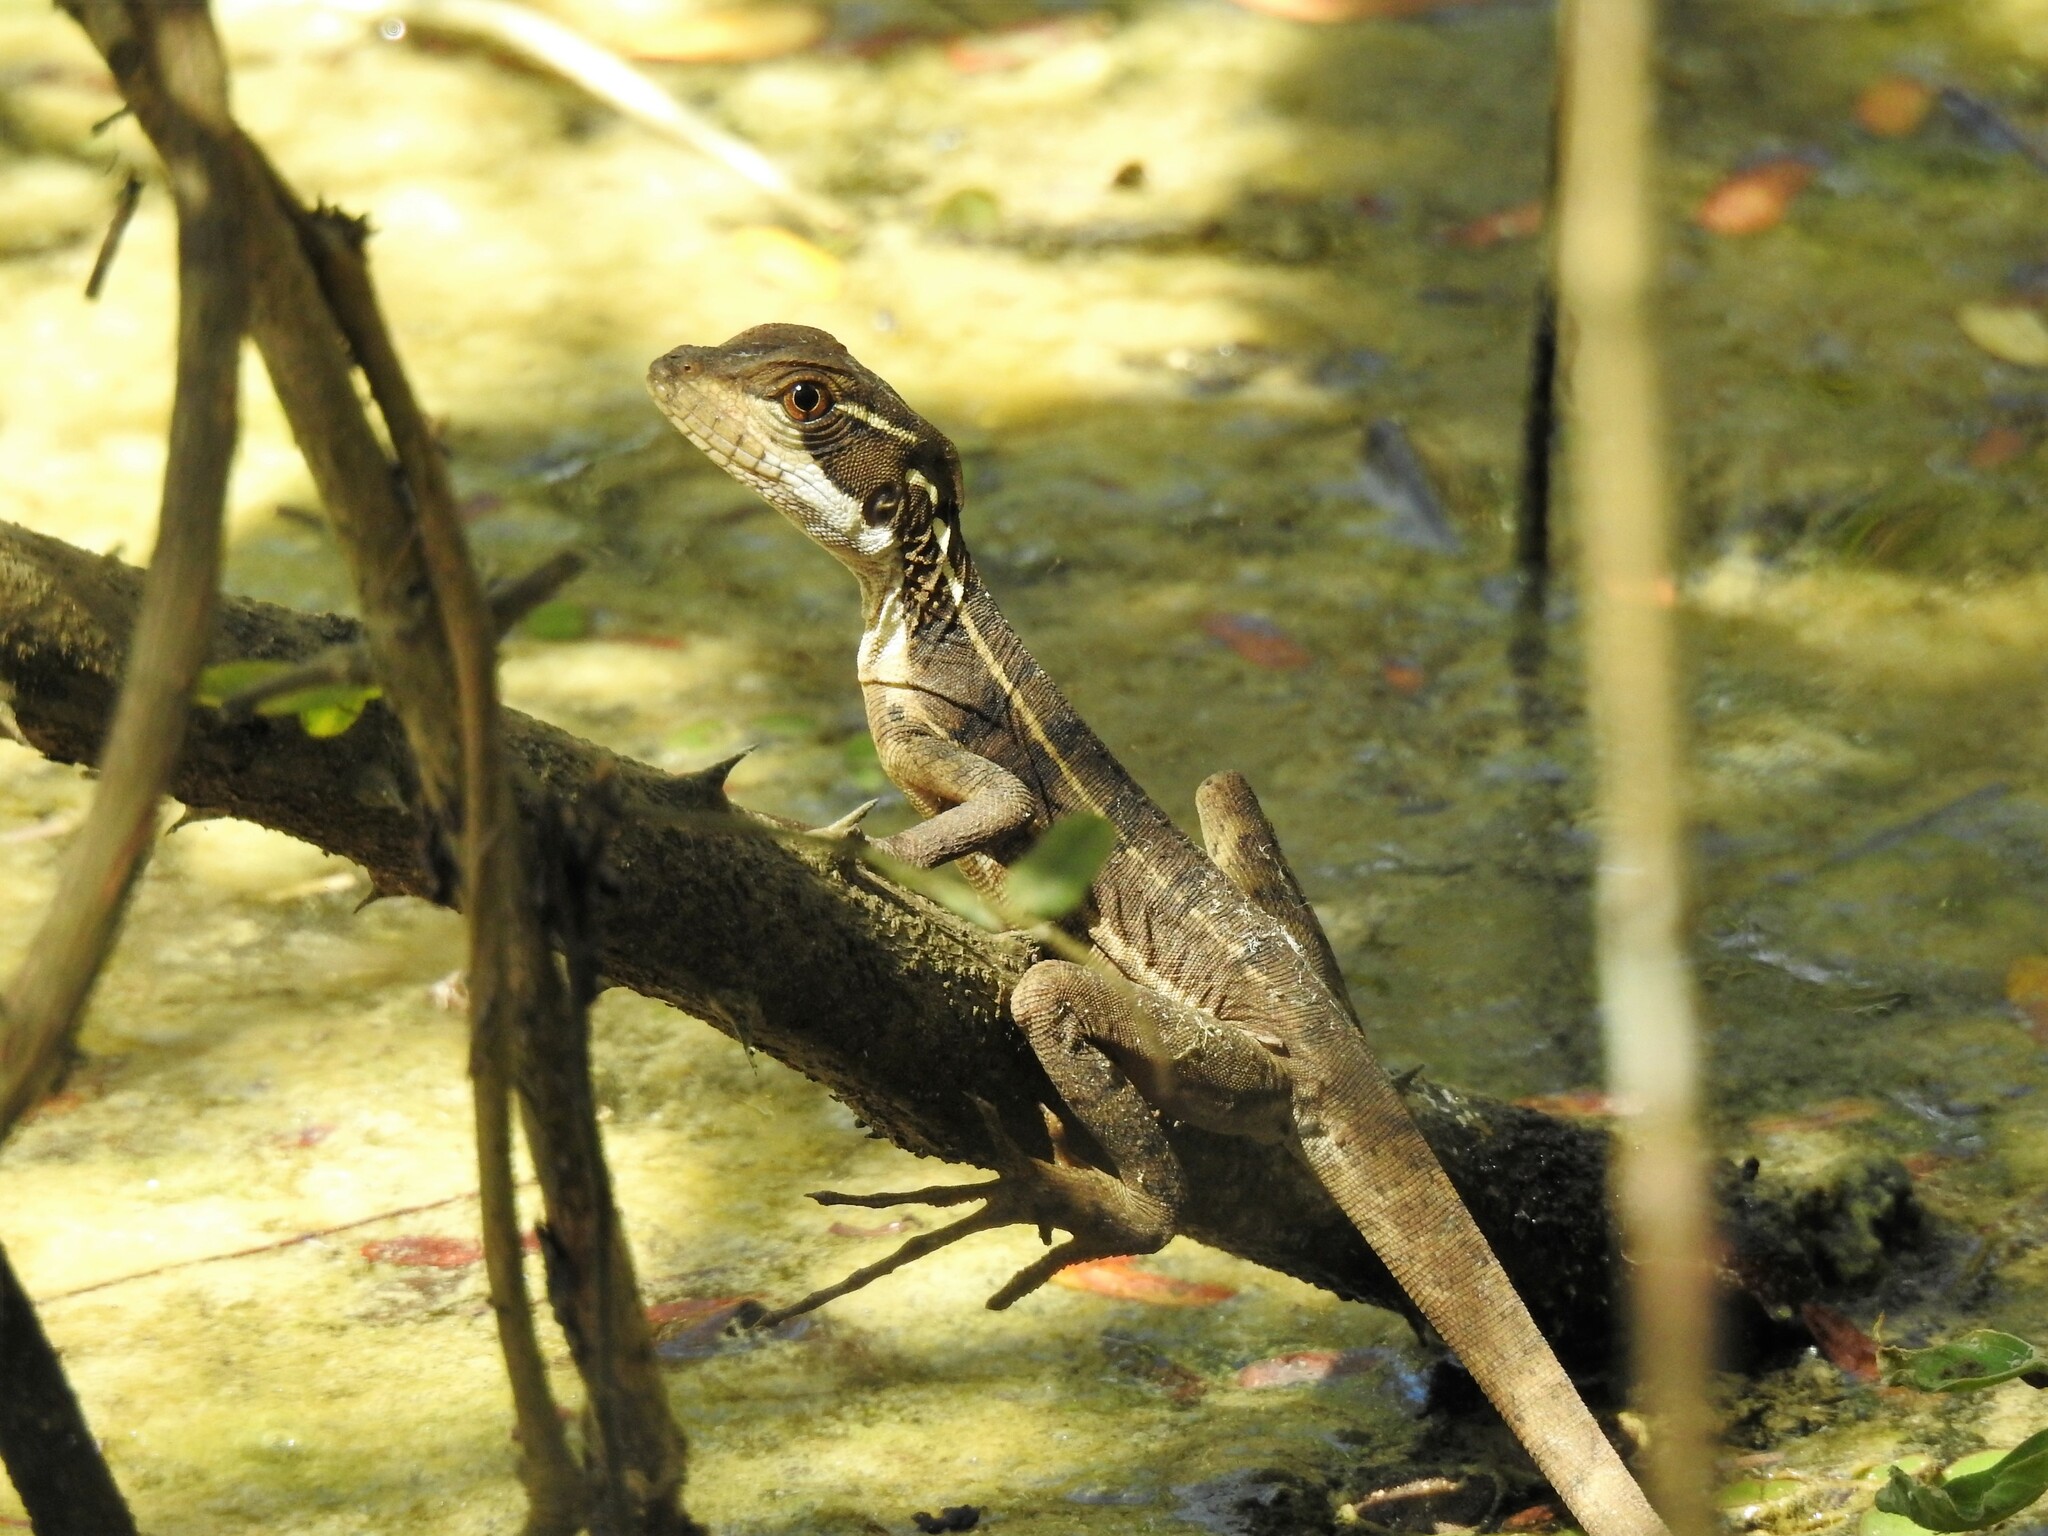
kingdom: Animalia
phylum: Chordata
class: Squamata
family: Corytophanidae
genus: Basiliscus
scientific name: Basiliscus basiliscus
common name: Common basilisk
